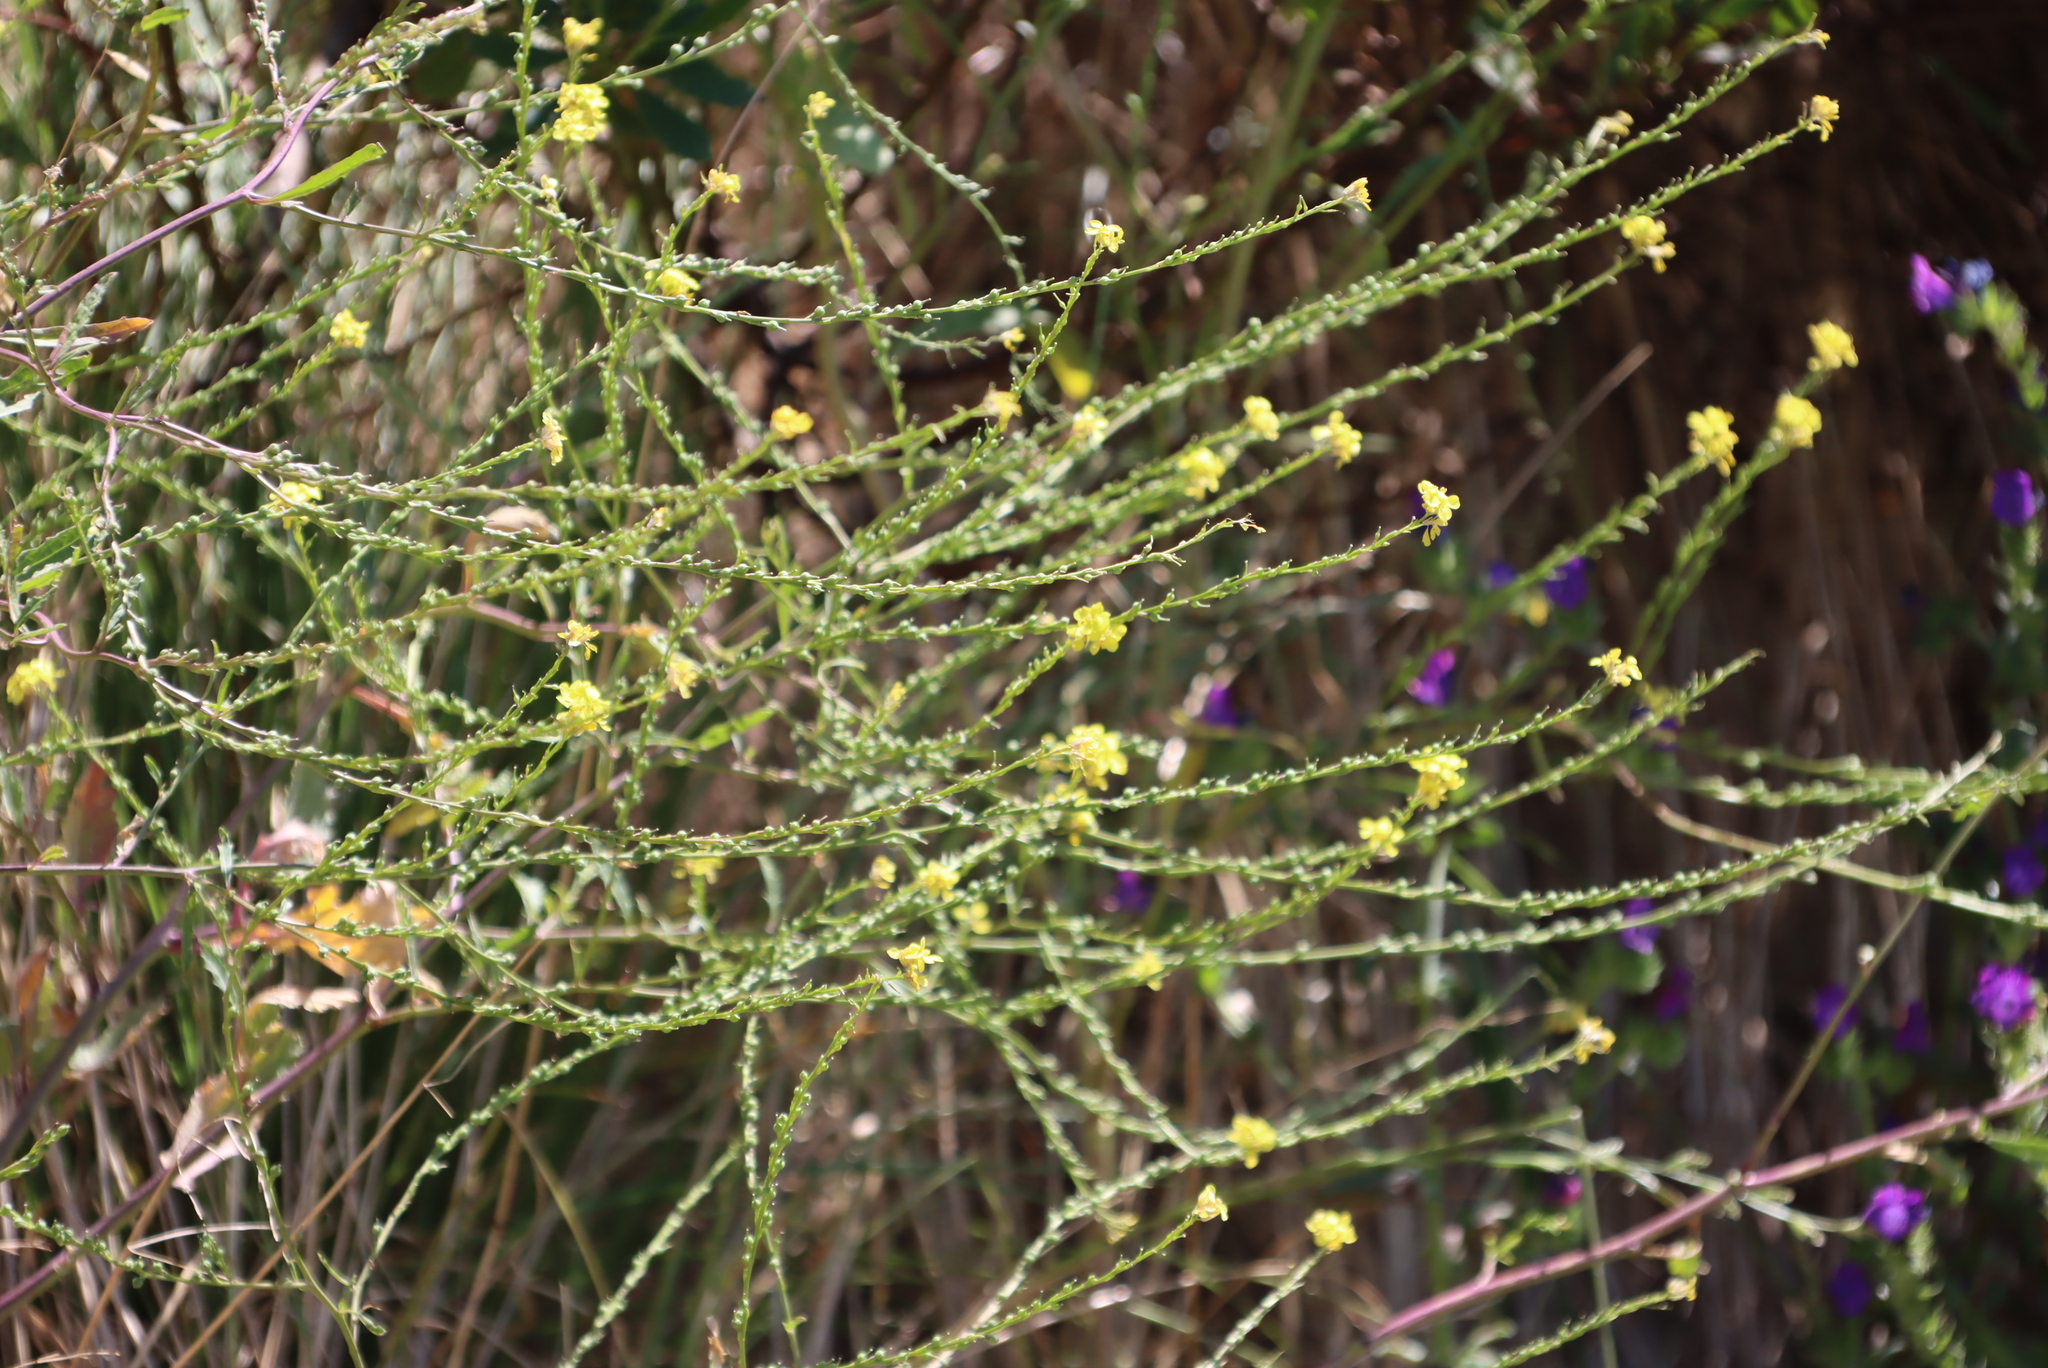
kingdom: Plantae
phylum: Tracheophyta
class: Magnoliopsida
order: Brassicales
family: Brassicaceae
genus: Rapistrum
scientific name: Rapistrum rugosum
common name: Annual bastardcabbage
